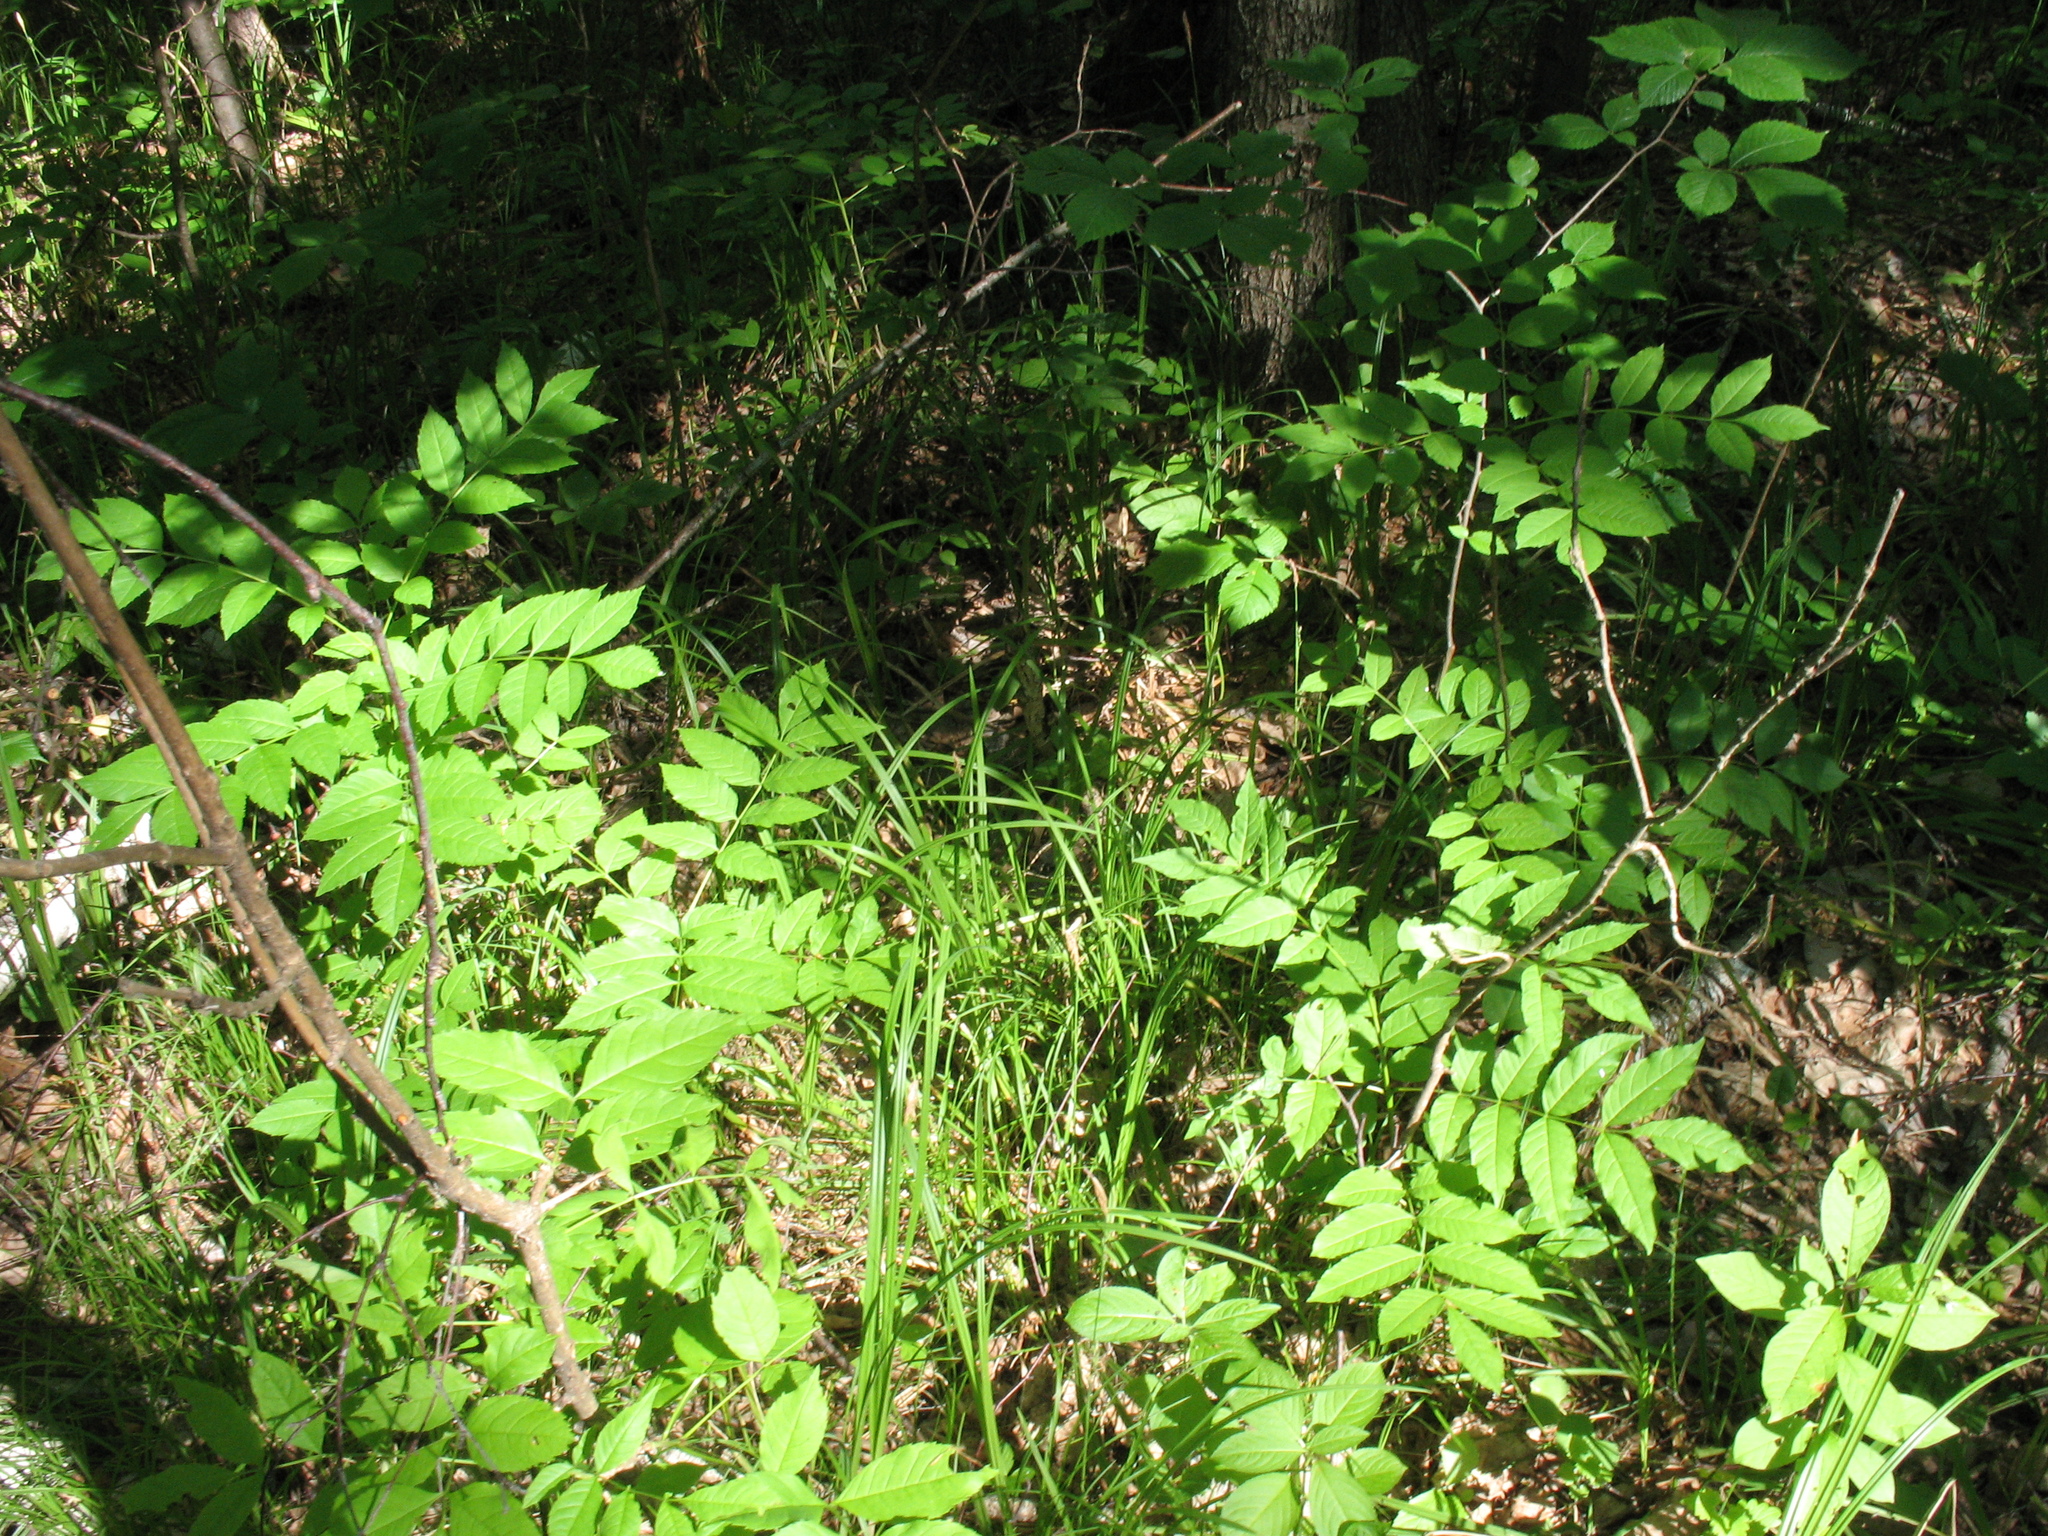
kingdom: Plantae
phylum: Tracheophyta
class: Magnoliopsida
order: Lamiales
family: Oleaceae
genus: Fraxinus
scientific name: Fraxinus excelsior
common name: European ash
